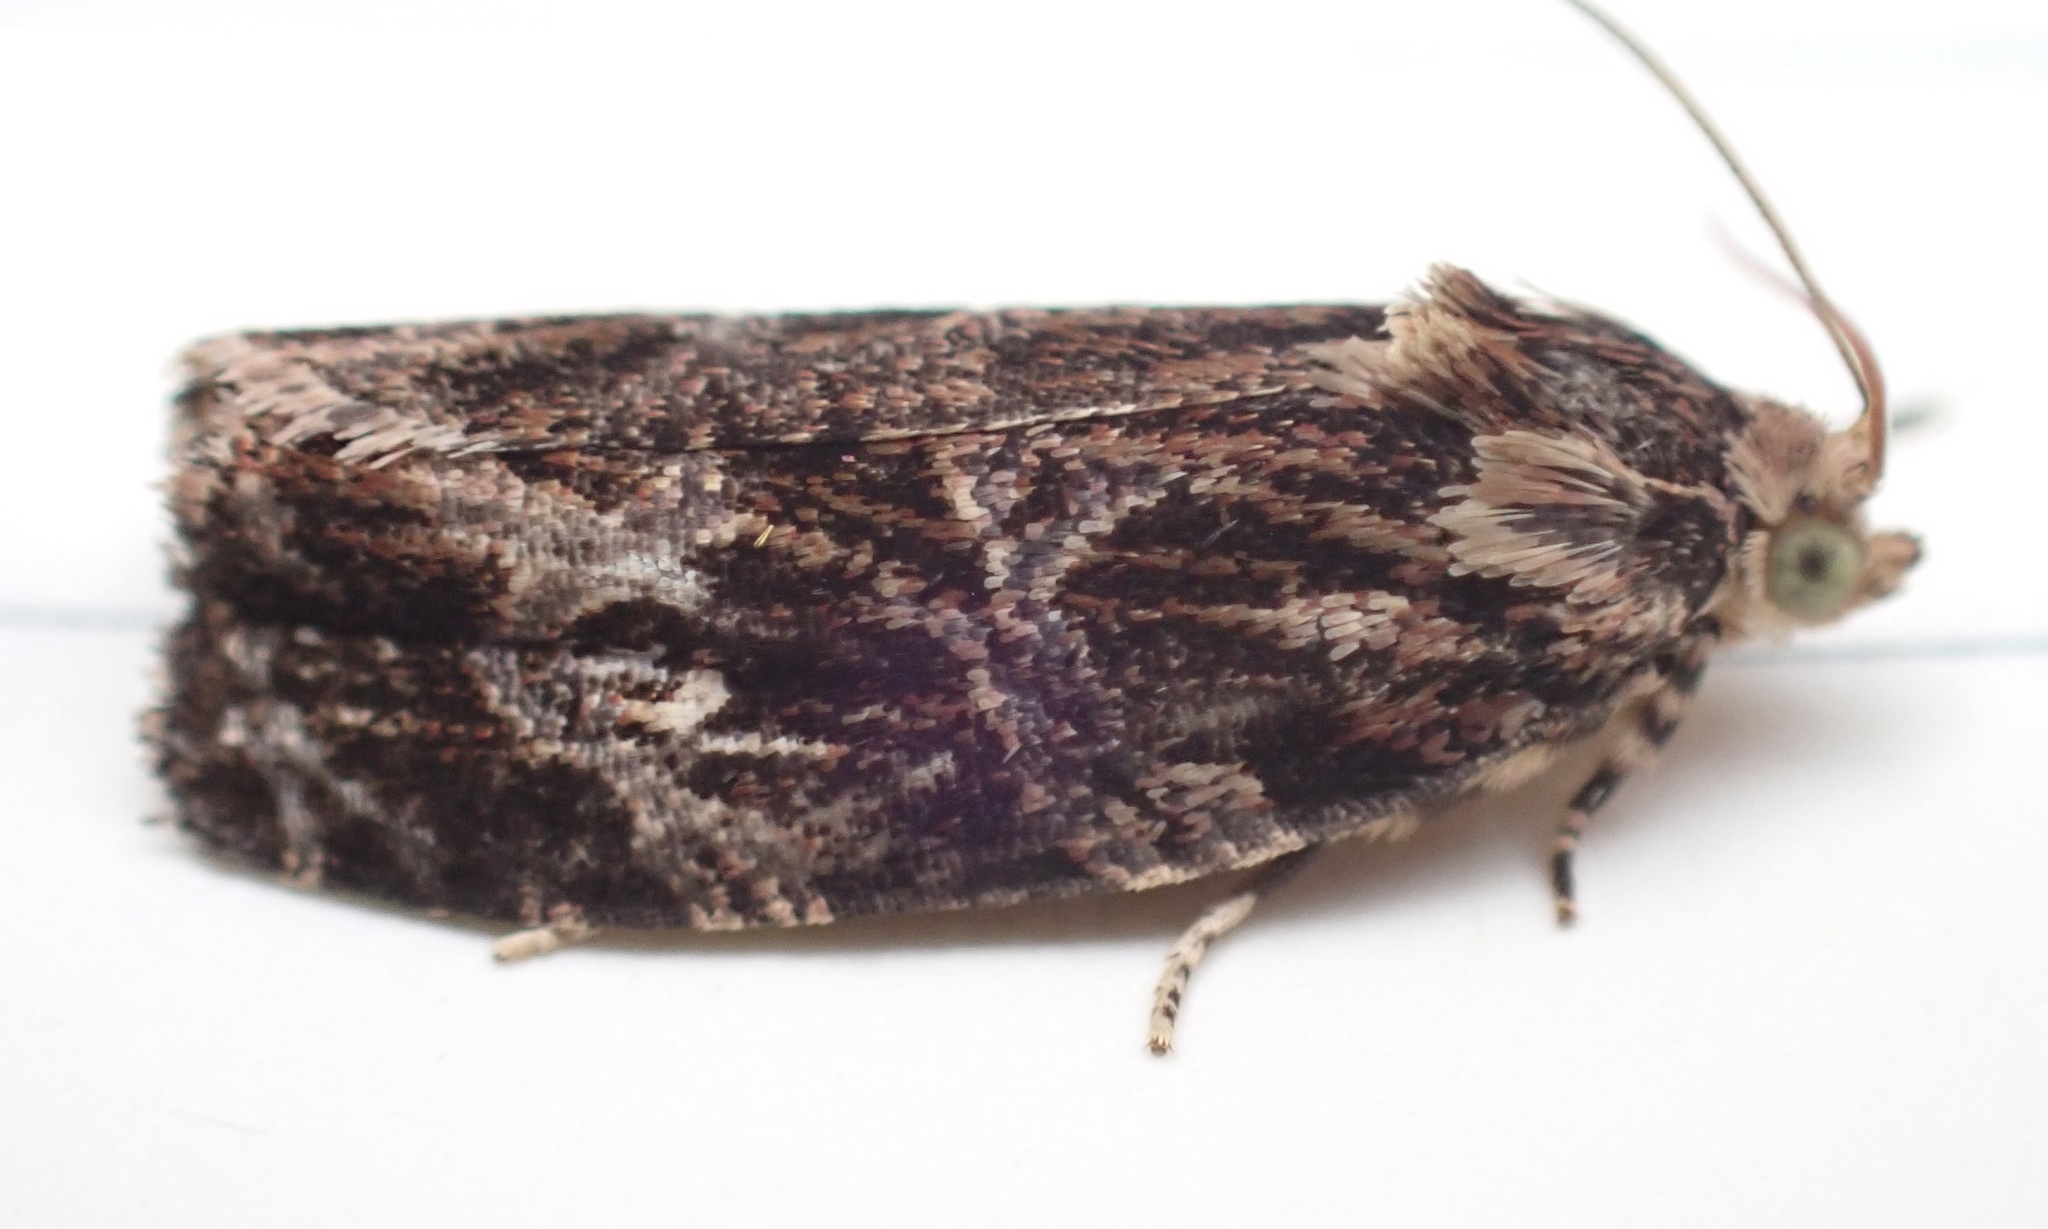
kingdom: Animalia
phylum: Arthropoda
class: Insecta
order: Lepidoptera
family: Tortricidae
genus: Phaecasiophora
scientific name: Phaecasiophora confixana
